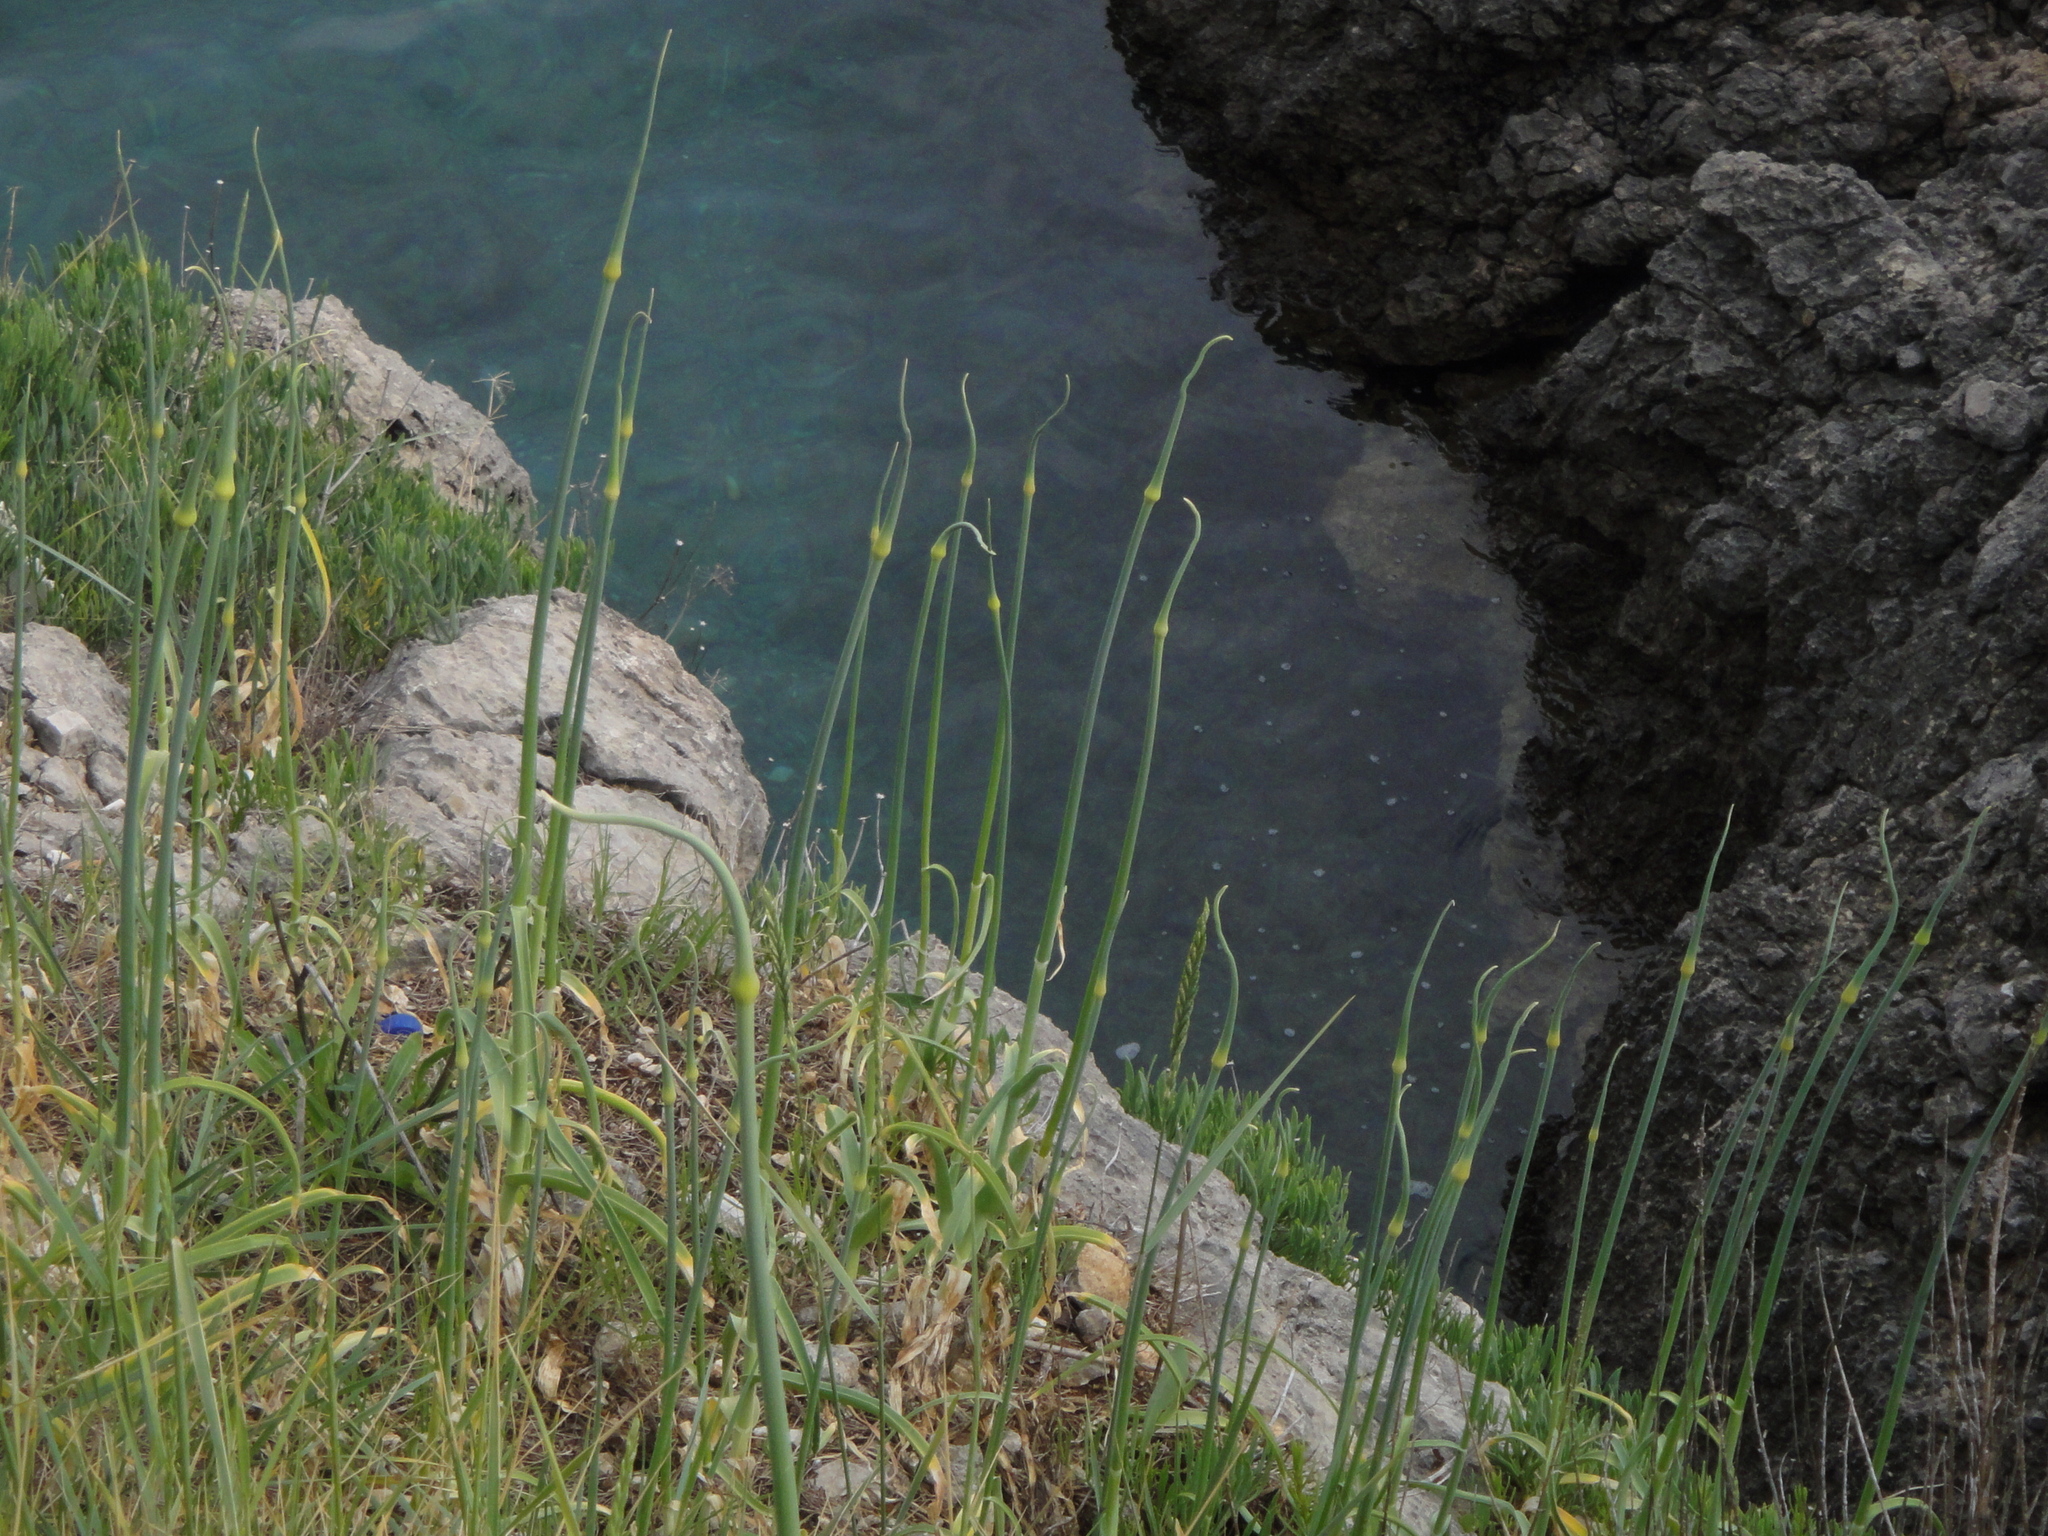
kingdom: Plantae
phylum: Tracheophyta
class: Liliopsida
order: Asparagales
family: Amaryllidaceae
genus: Allium
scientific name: Allium commutatum
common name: Sea garlic
